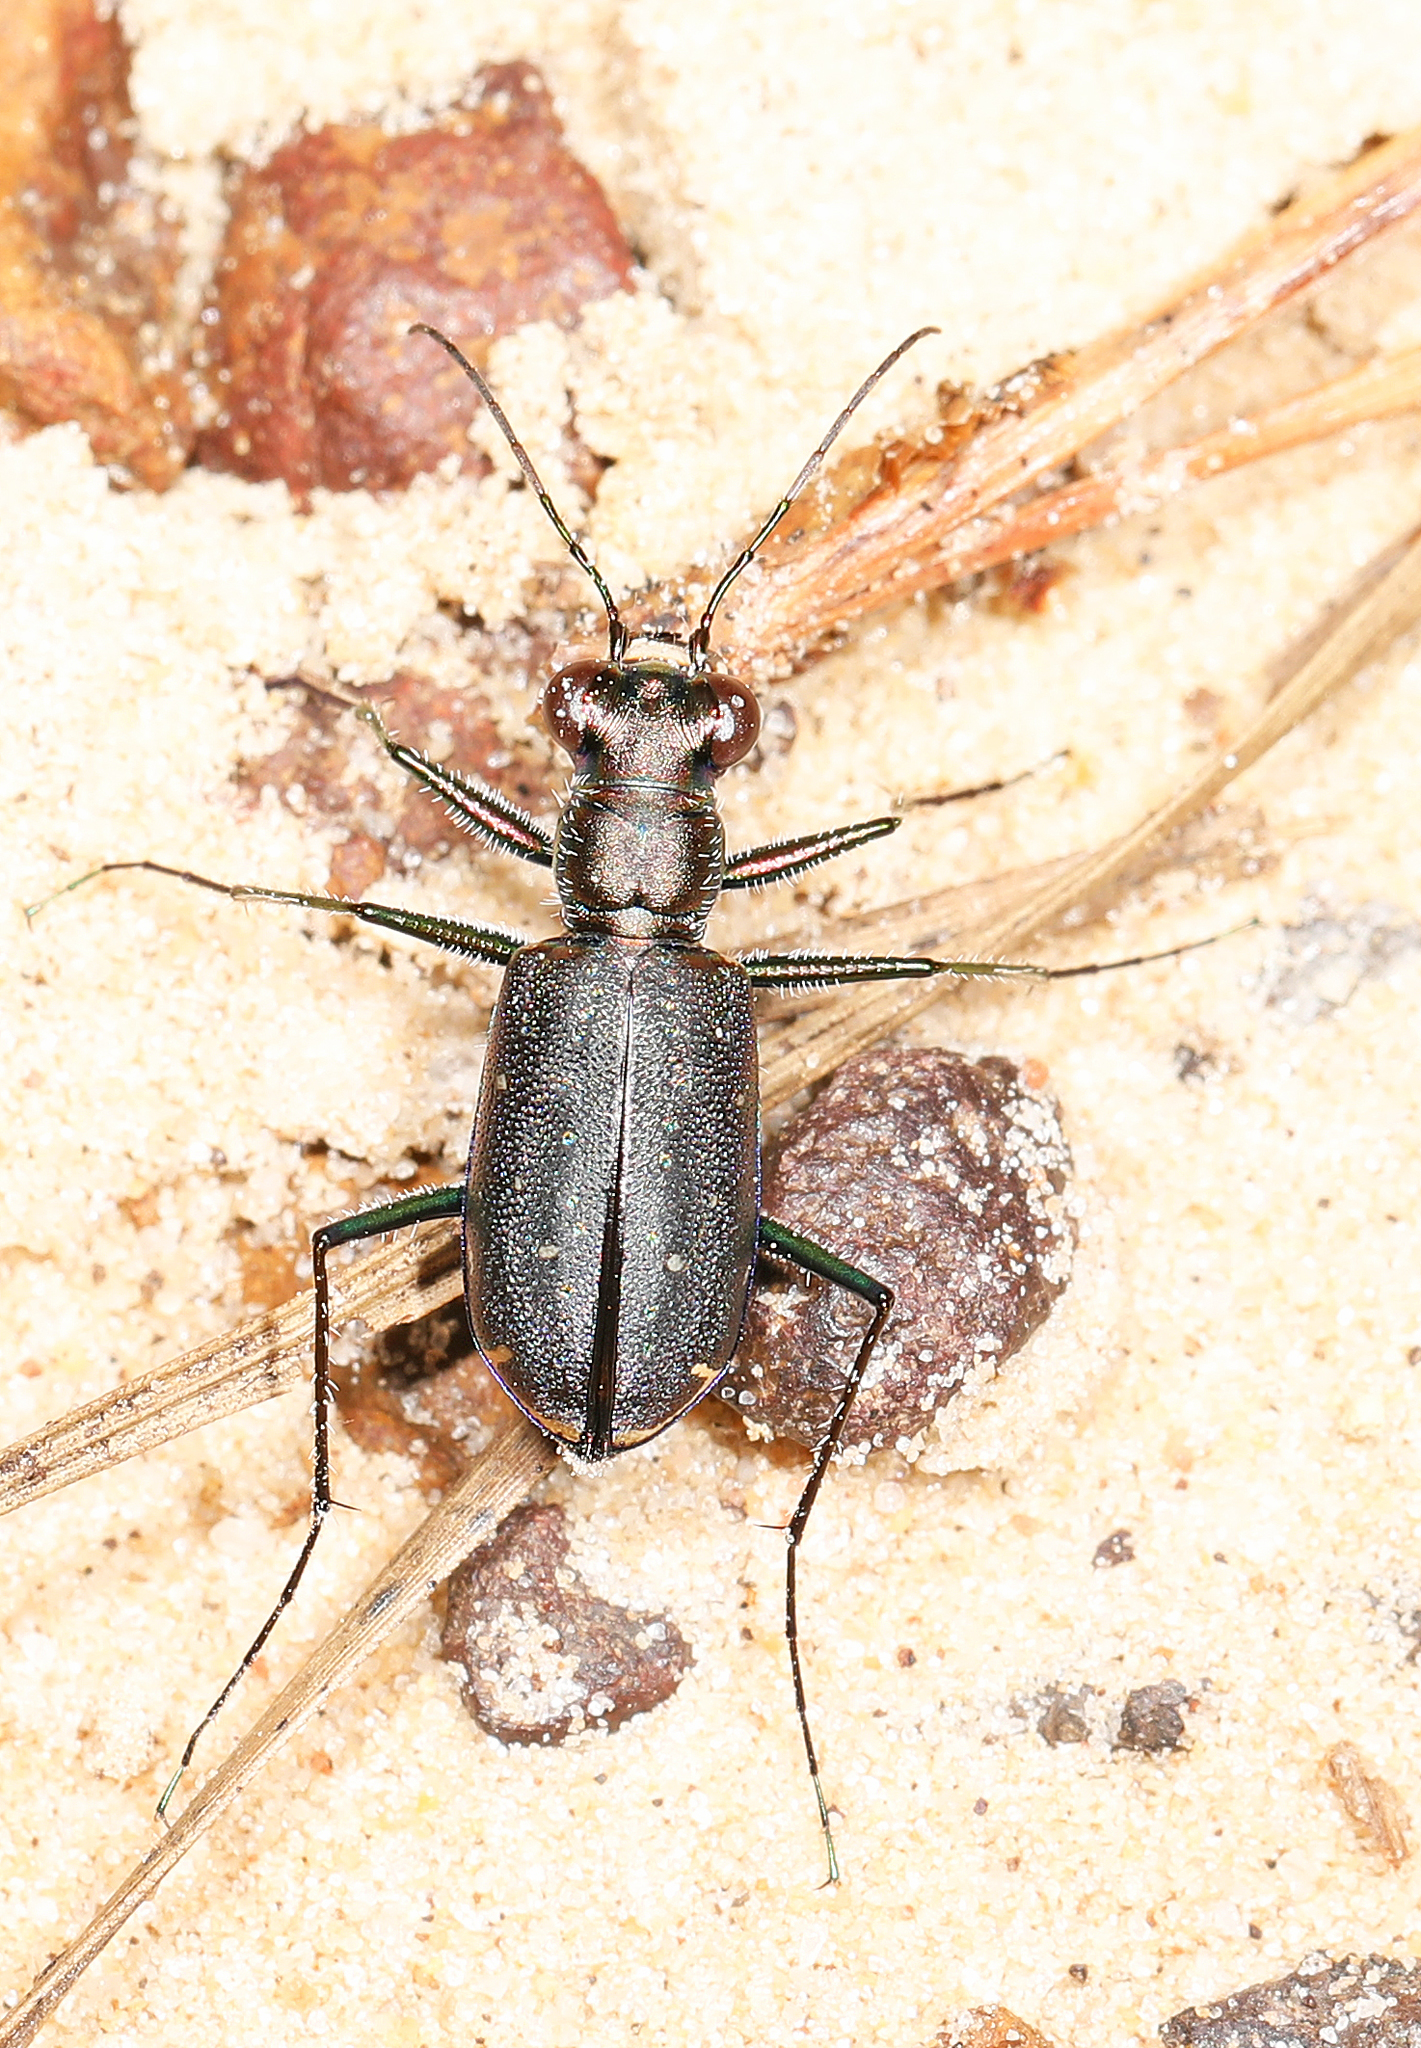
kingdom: Animalia
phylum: Arthropoda
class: Insecta
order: Coleoptera
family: Carabidae
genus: Cicindela
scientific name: Cicindela punctulata
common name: Punctured tiger beetle
